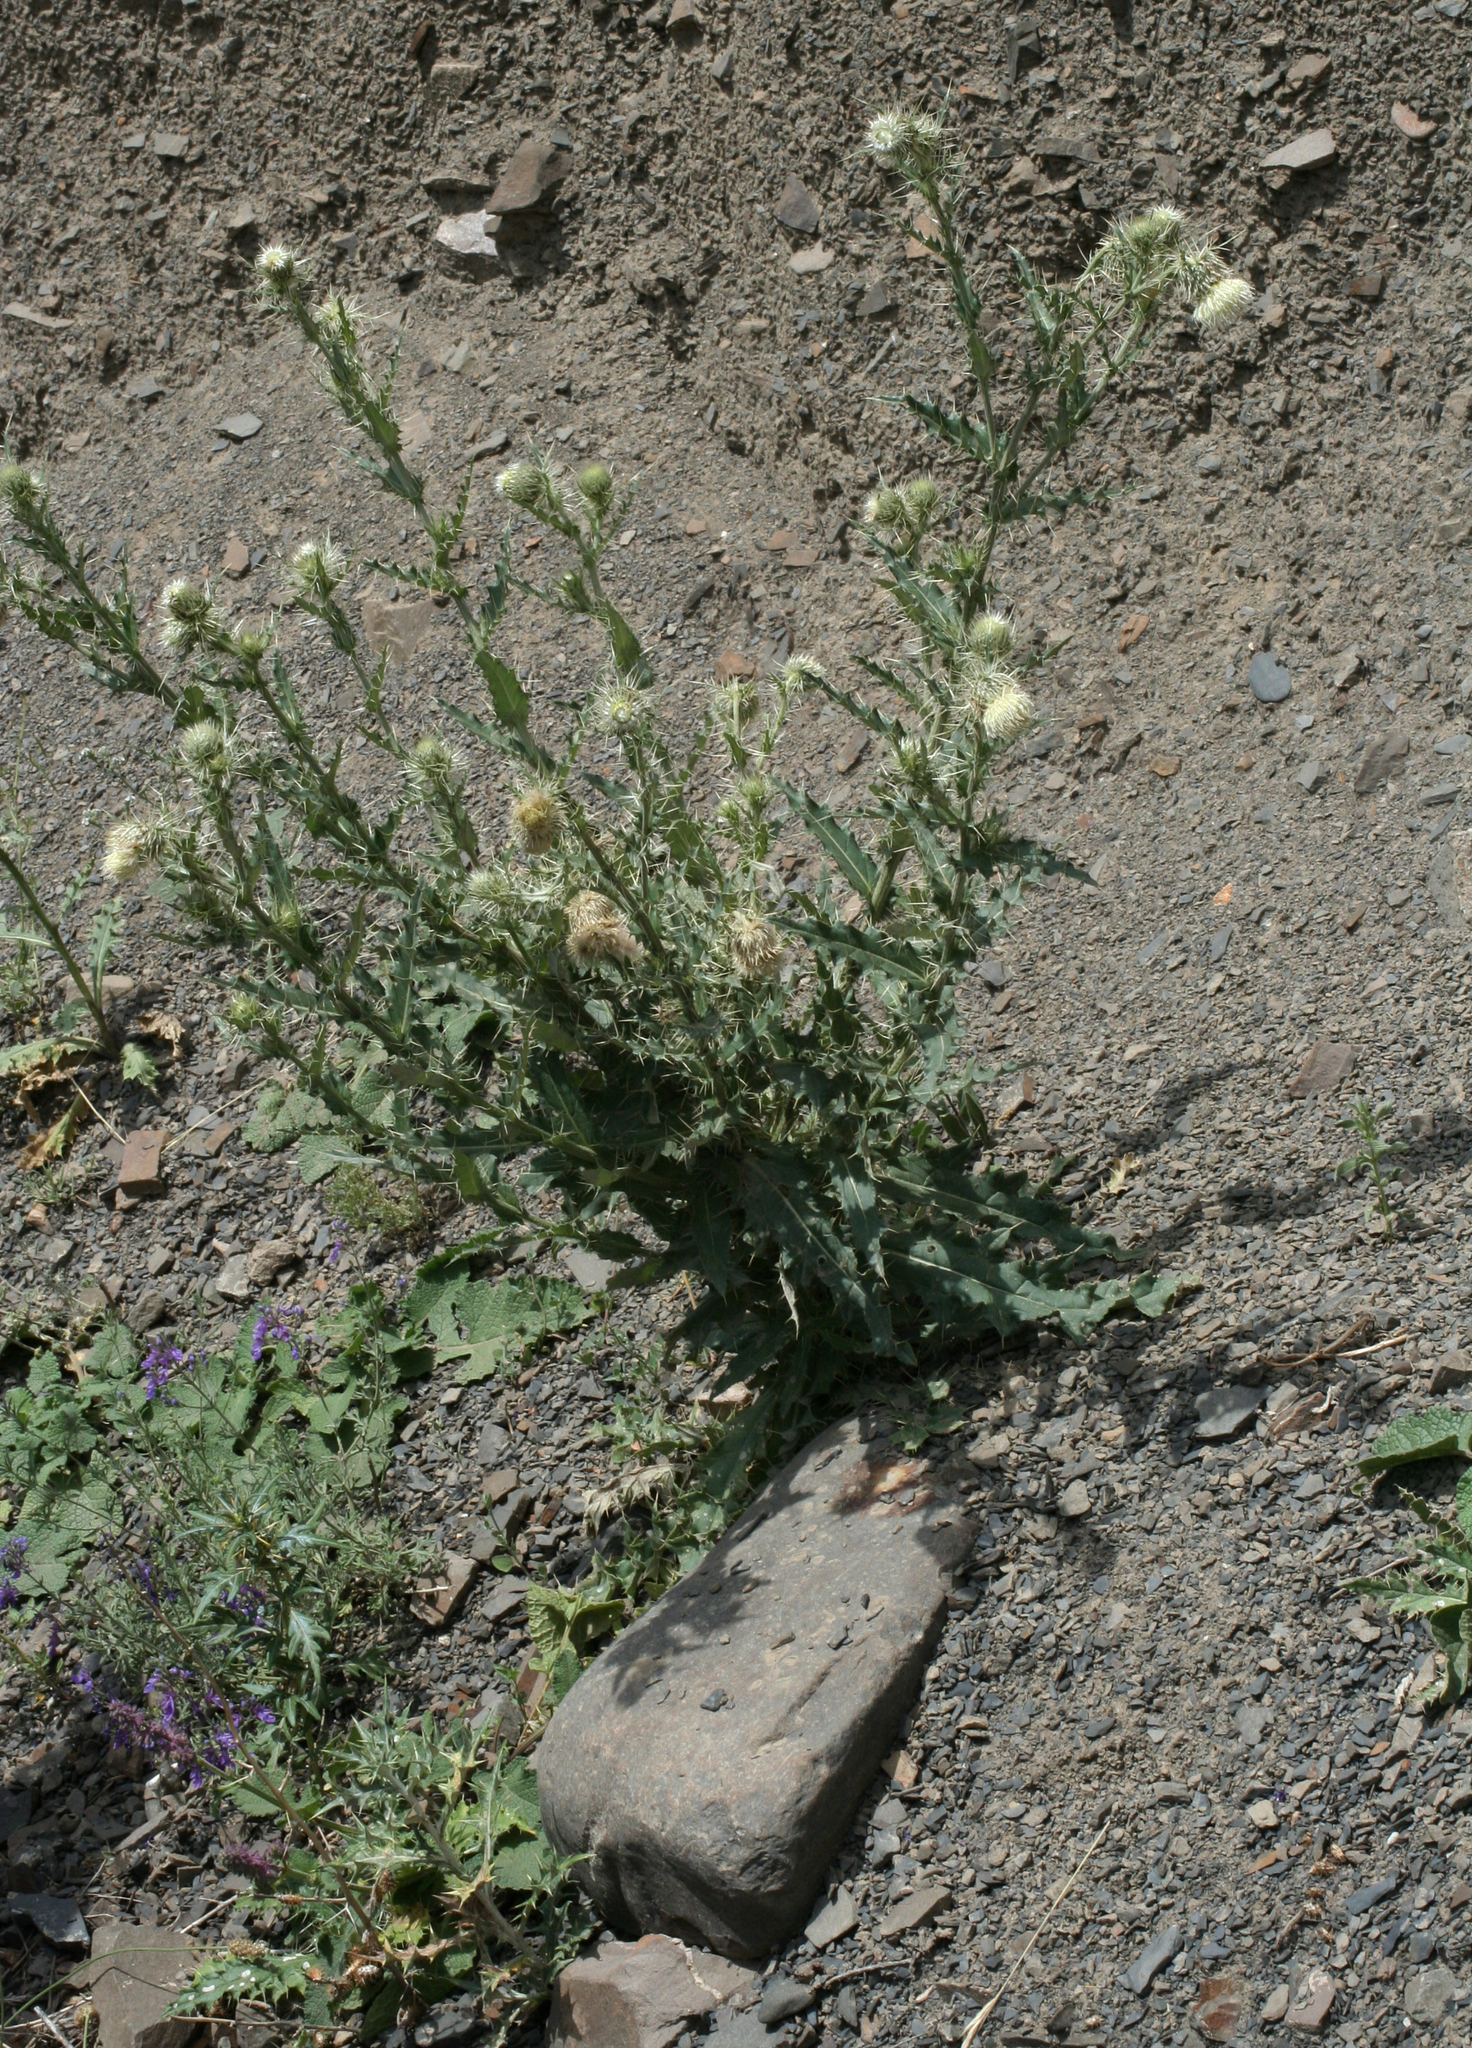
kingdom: Plantae
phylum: Tracheophyta
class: Magnoliopsida
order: Asterales
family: Asteraceae
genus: Cirsium
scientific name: Cirsium echinus
